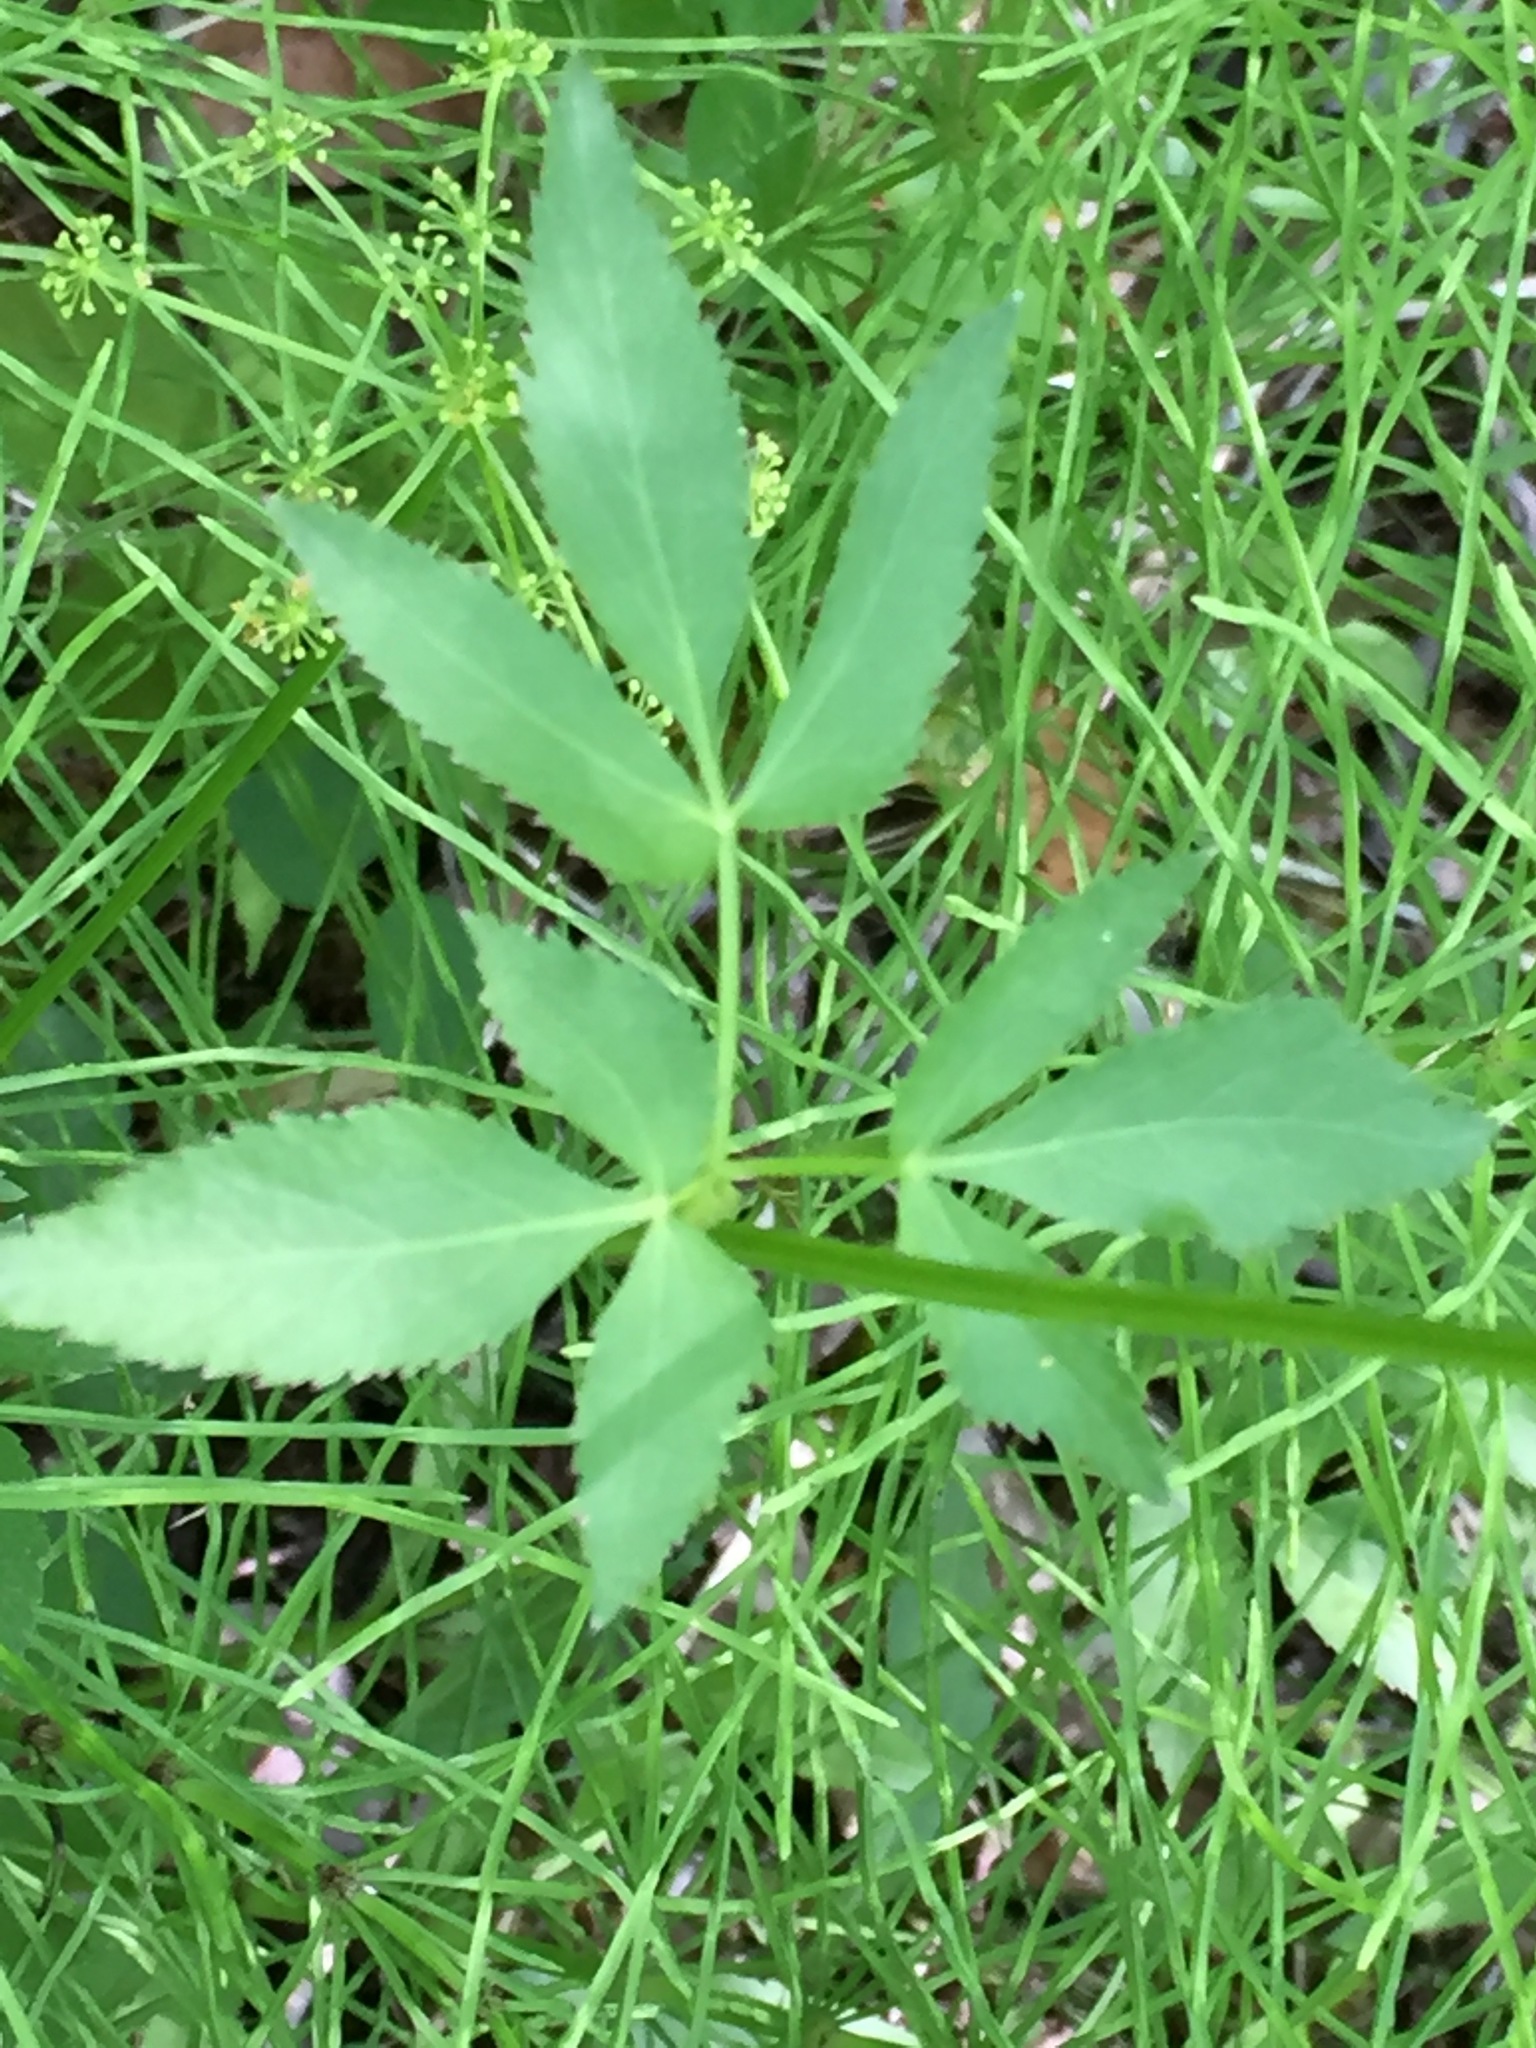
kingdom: Plantae
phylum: Tracheophyta
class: Magnoliopsida
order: Apiales
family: Apiaceae
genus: Zizia
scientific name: Zizia aurea
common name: Golden alexanders
